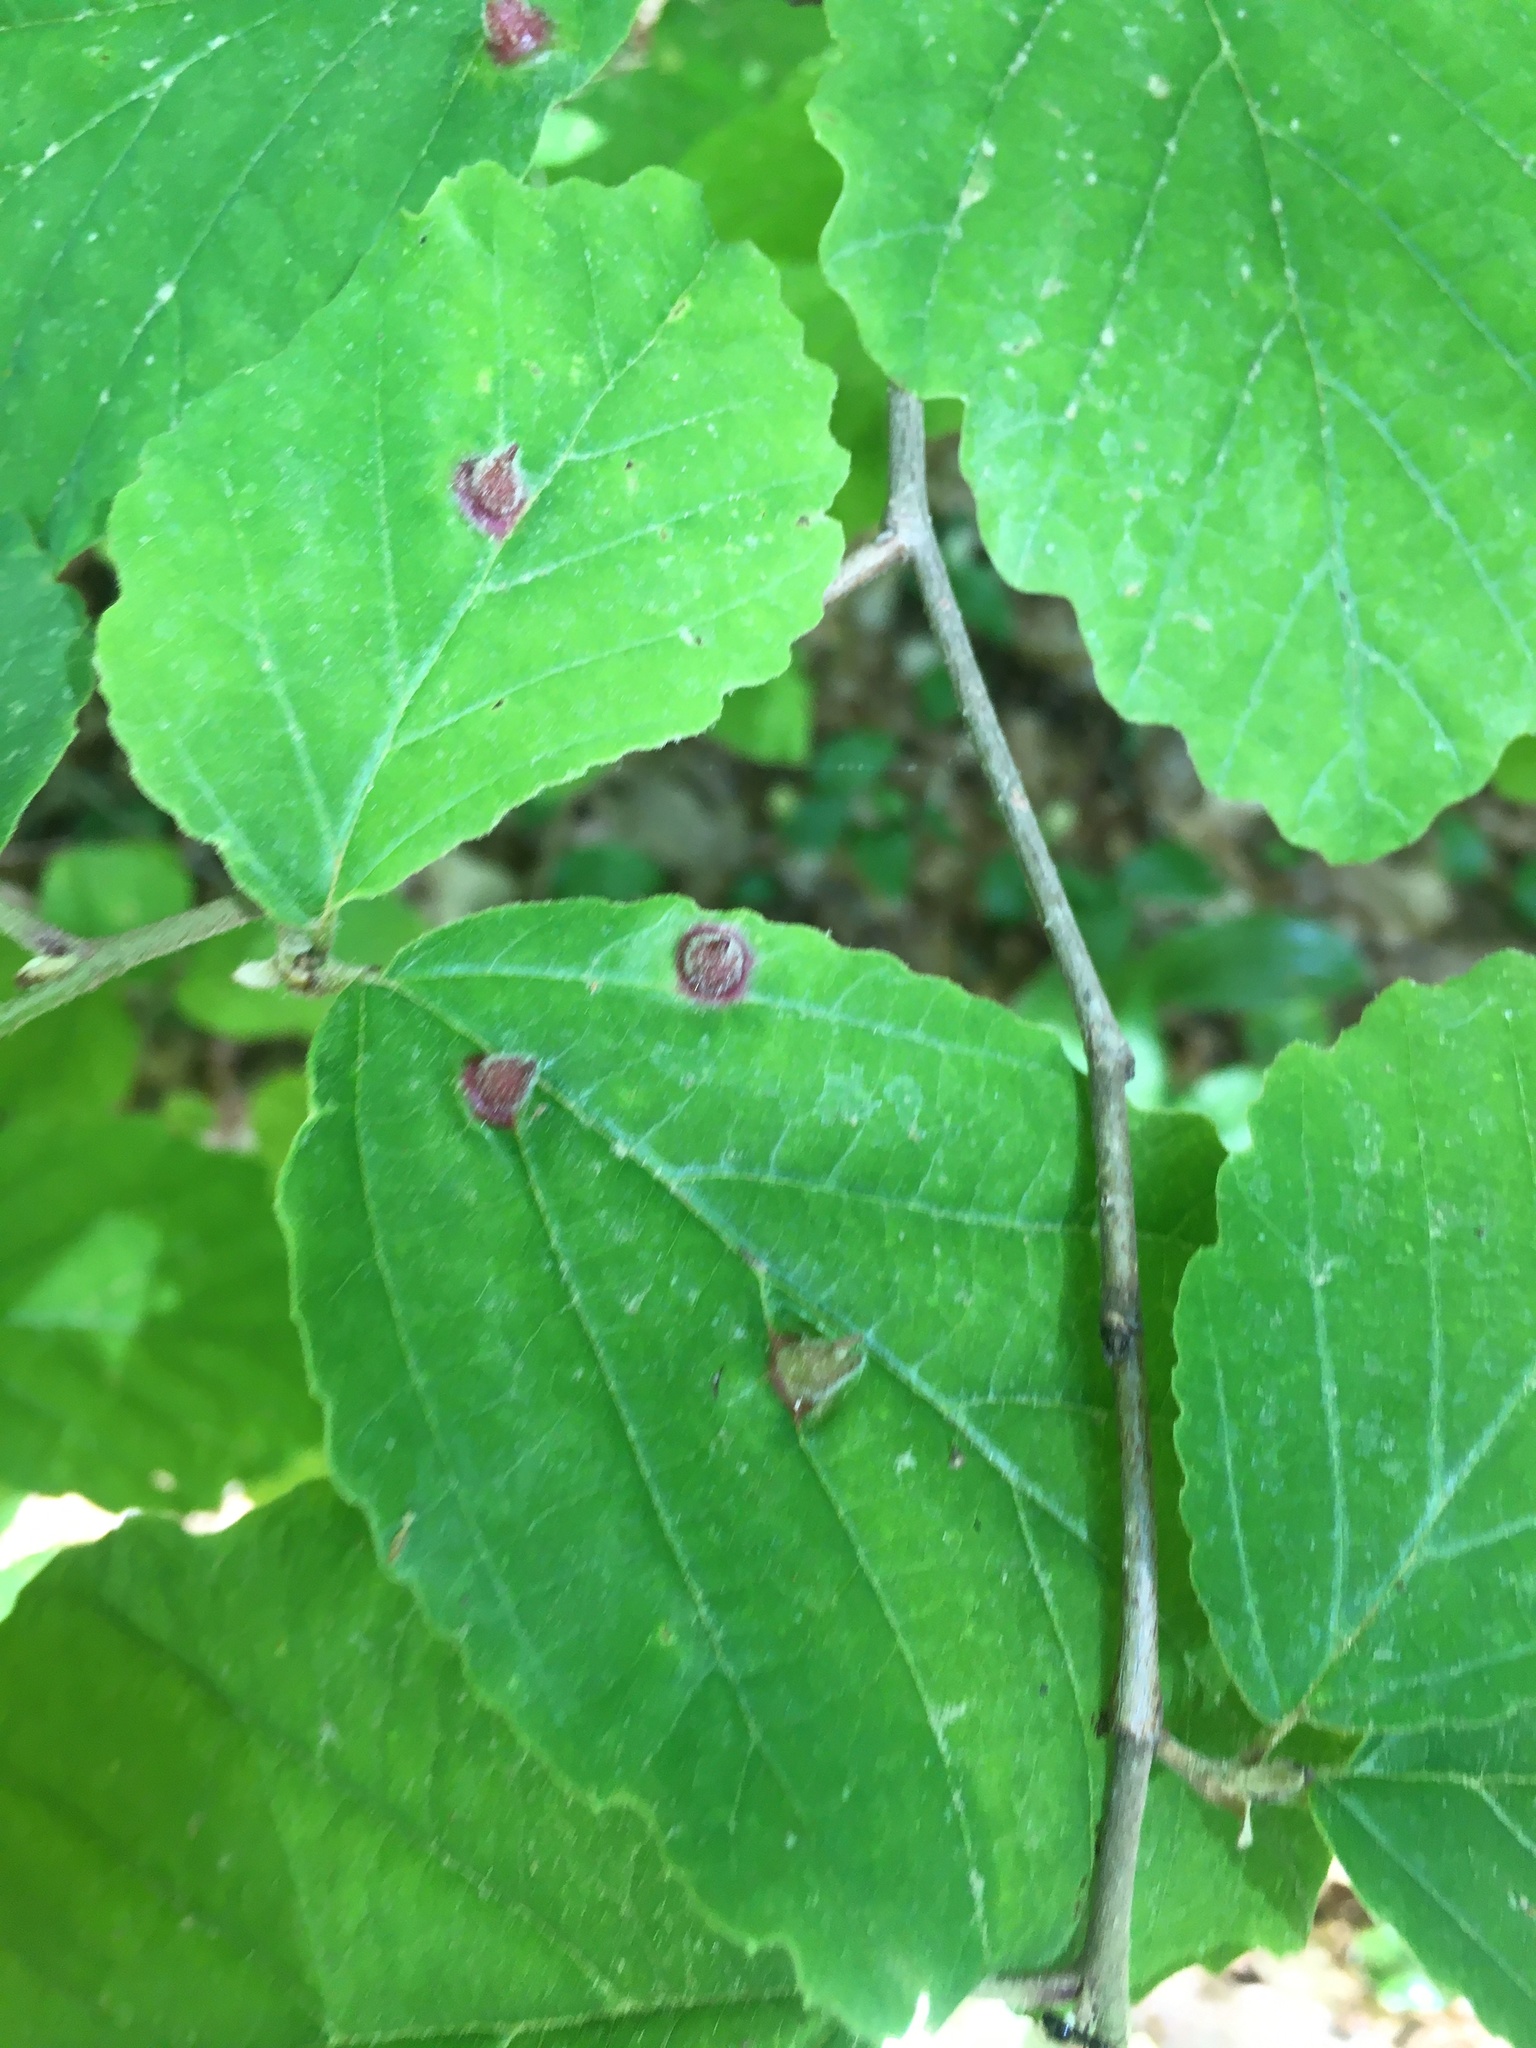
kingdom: Animalia
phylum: Arthropoda
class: Insecta
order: Hemiptera
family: Aphididae
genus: Hormaphis
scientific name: Hormaphis hamamelidis
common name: Witch-hazel cone gall aphid
